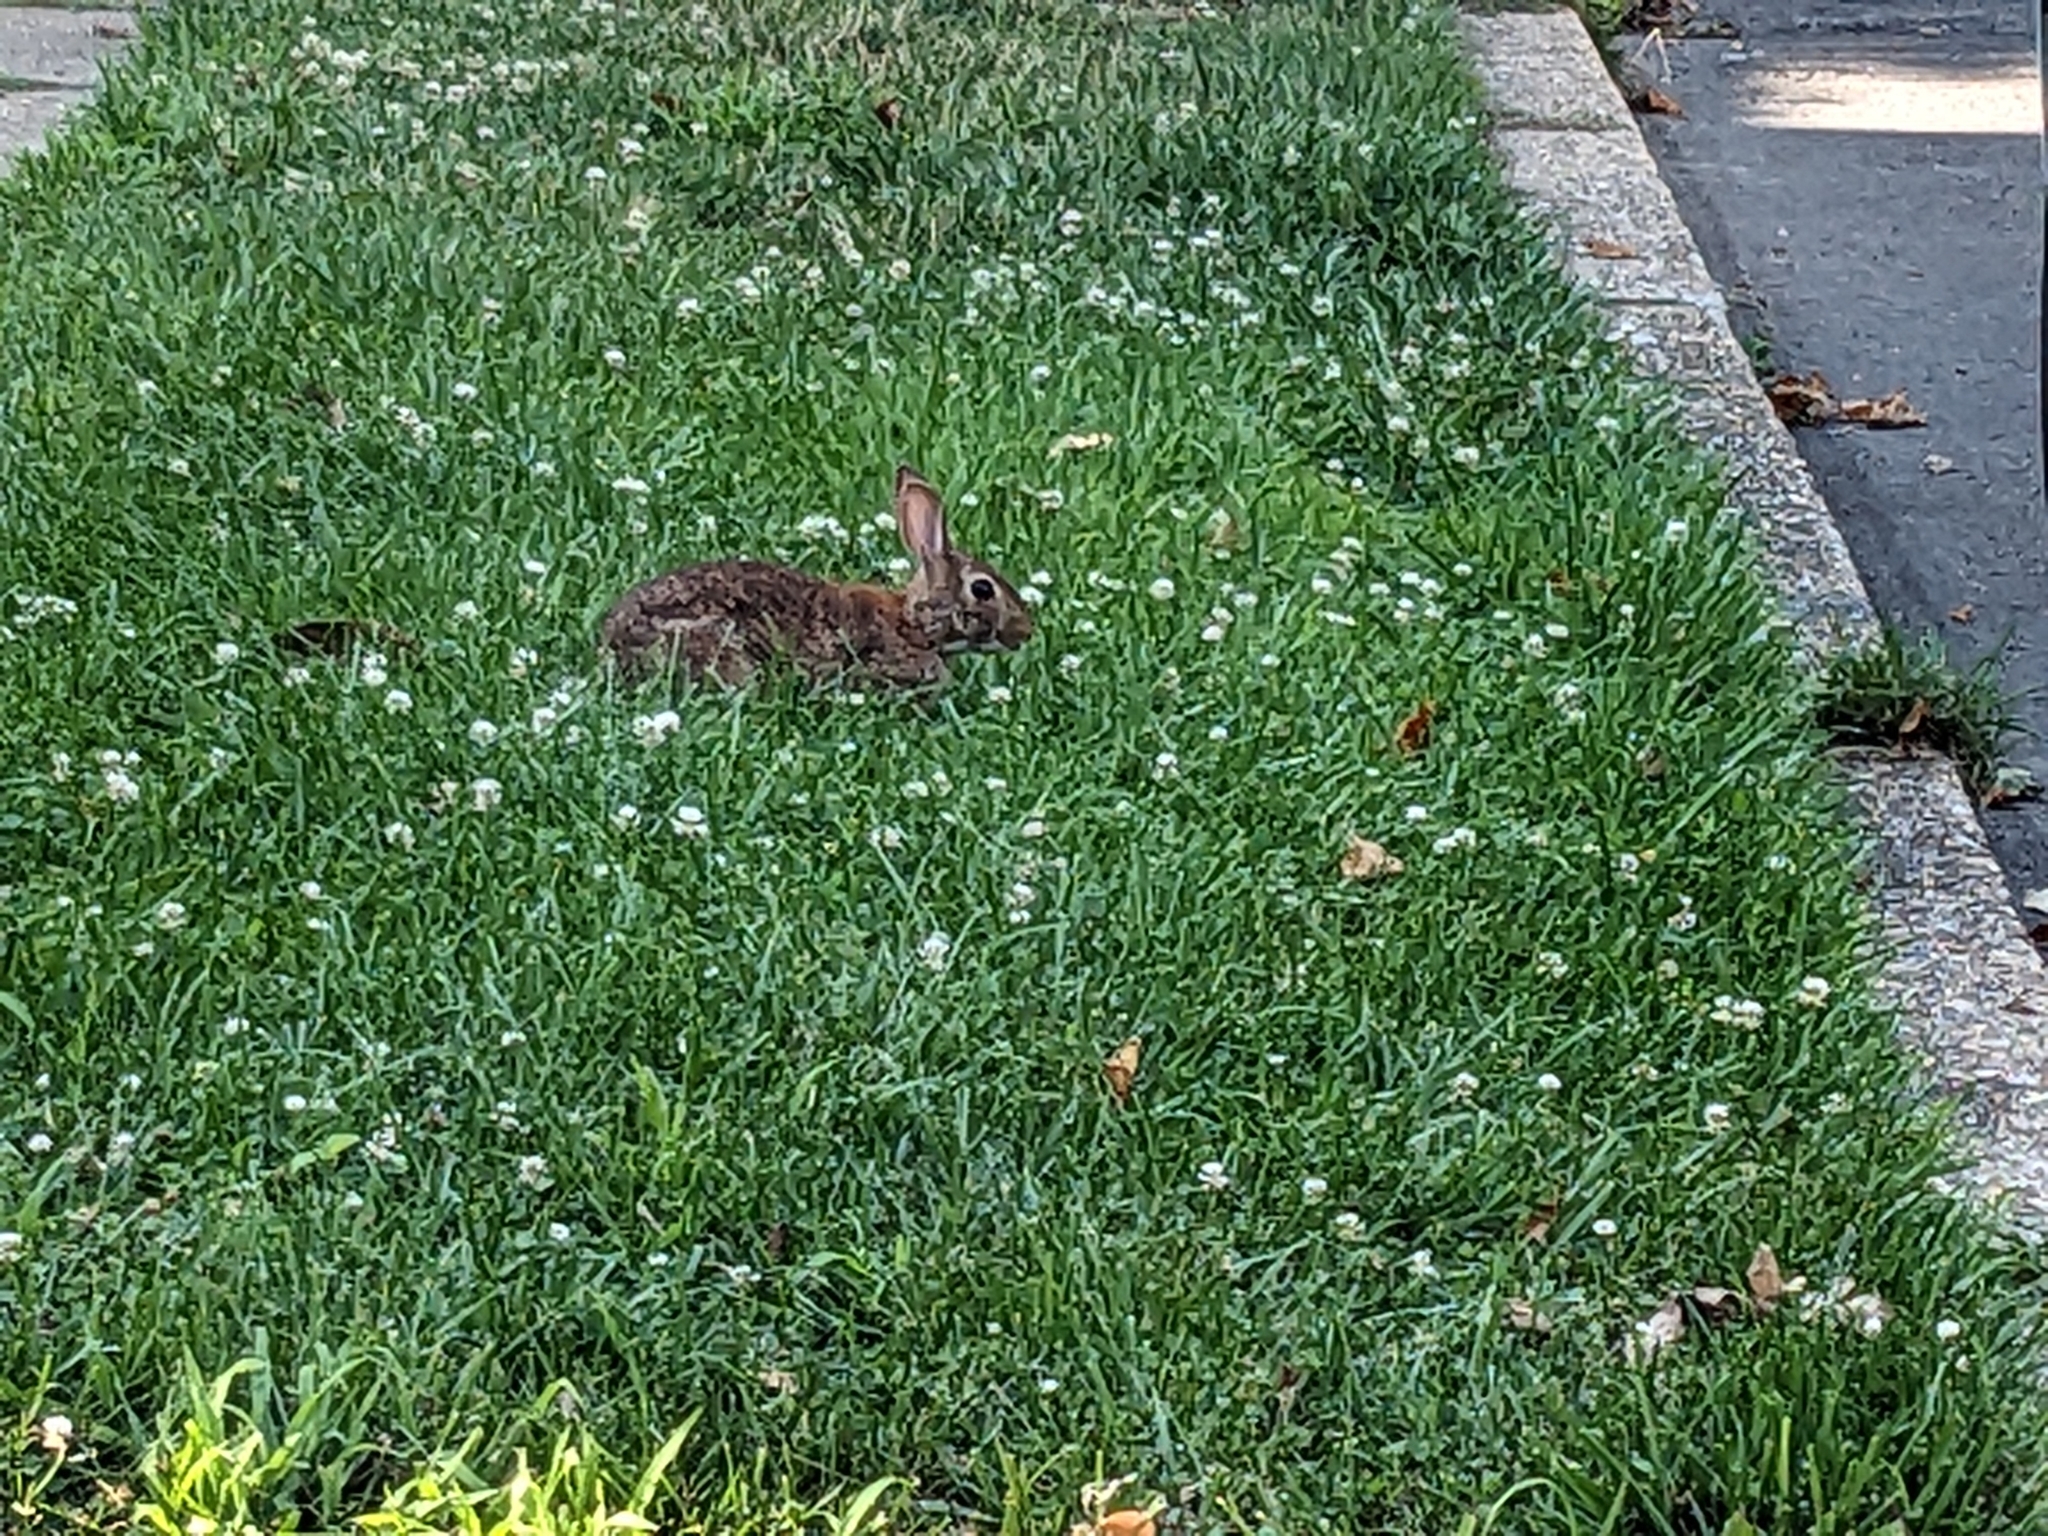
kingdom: Animalia
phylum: Chordata
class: Mammalia
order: Lagomorpha
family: Leporidae
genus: Sylvilagus
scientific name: Sylvilagus floridanus
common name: Eastern cottontail
